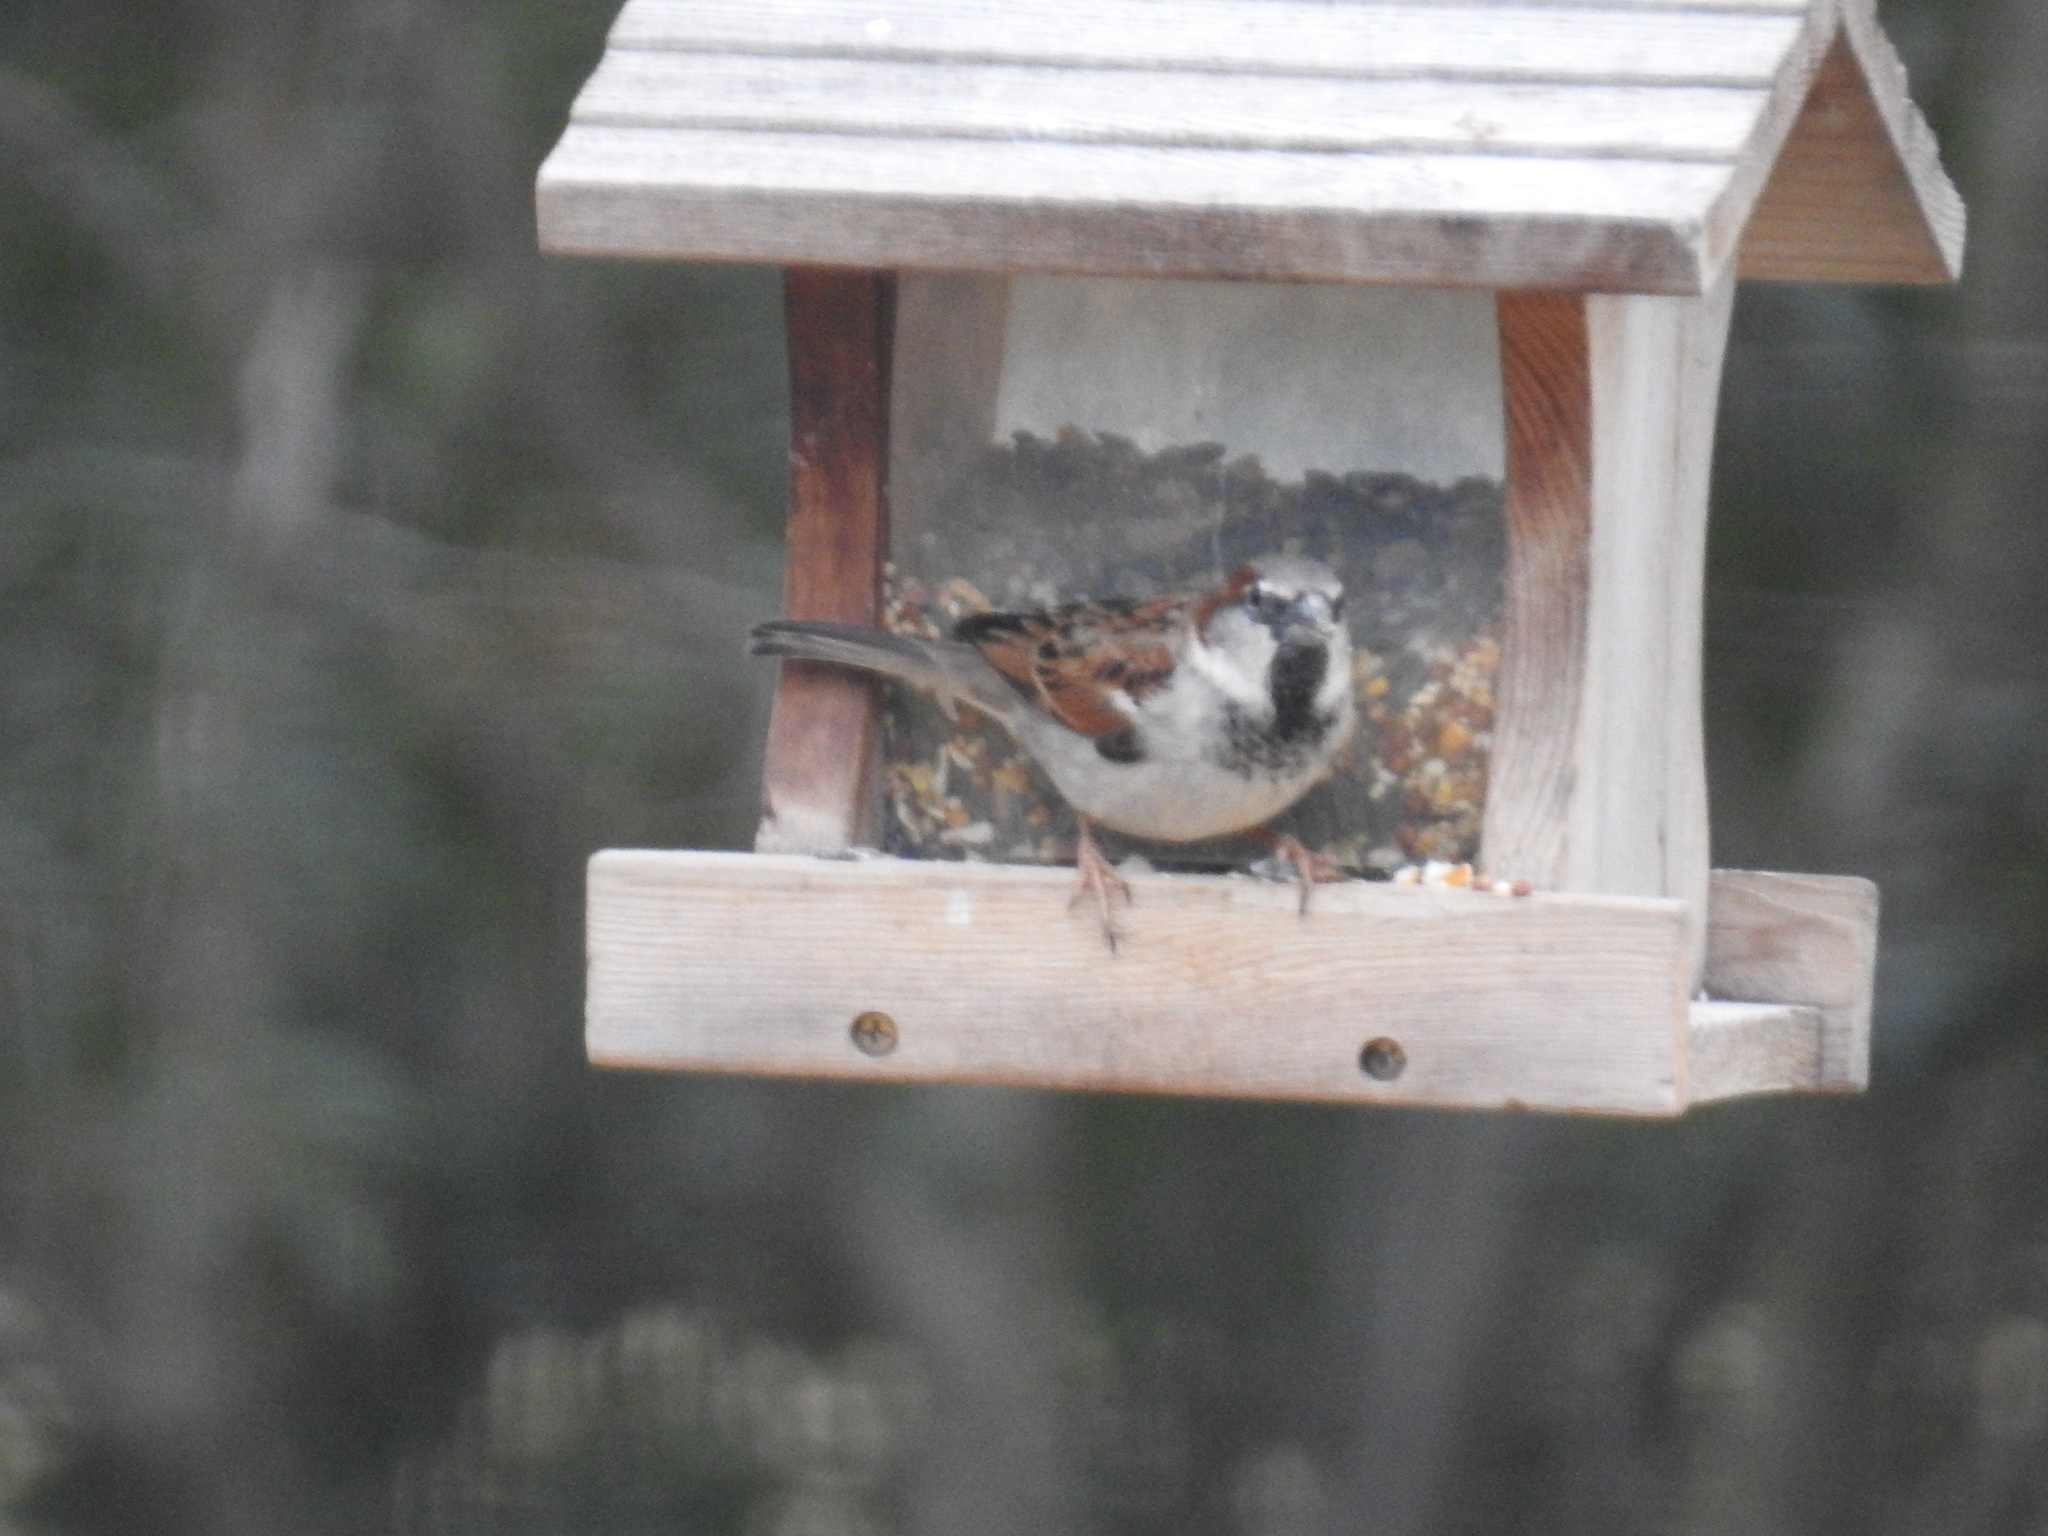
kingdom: Animalia
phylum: Chordata
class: Aves
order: Passeriformes
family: Passeridae
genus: Passer
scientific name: Passer domesticus
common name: House sparrow
